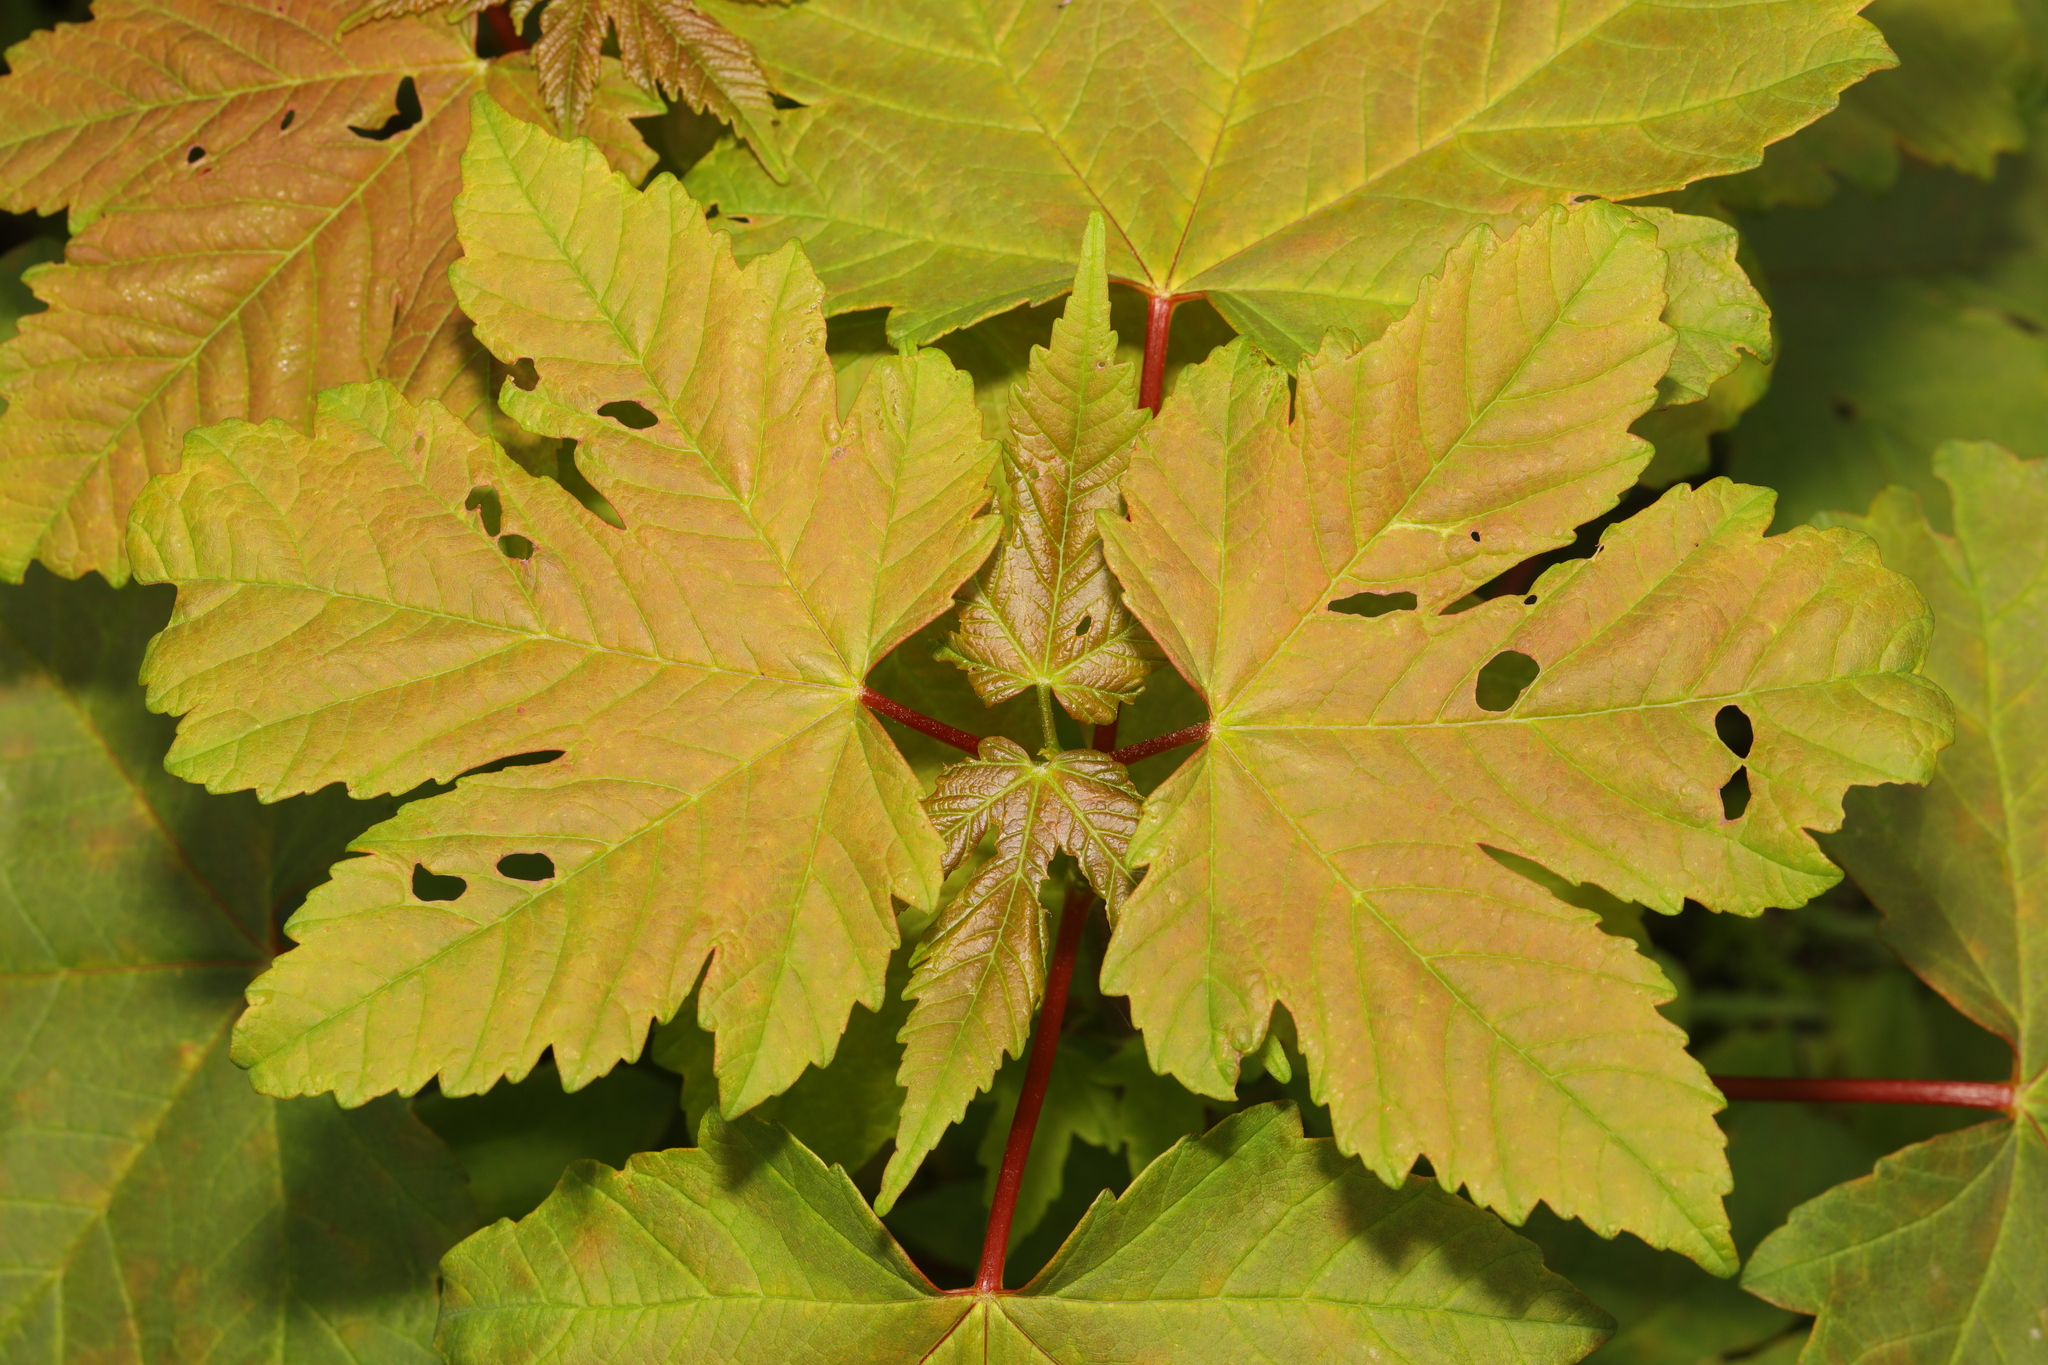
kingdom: Plantae
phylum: Tracheophyta
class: Magnoliopsida
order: Sapindales
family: Sapindaceae
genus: Acer
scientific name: Acer pseudoplatanus
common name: Sycamore
